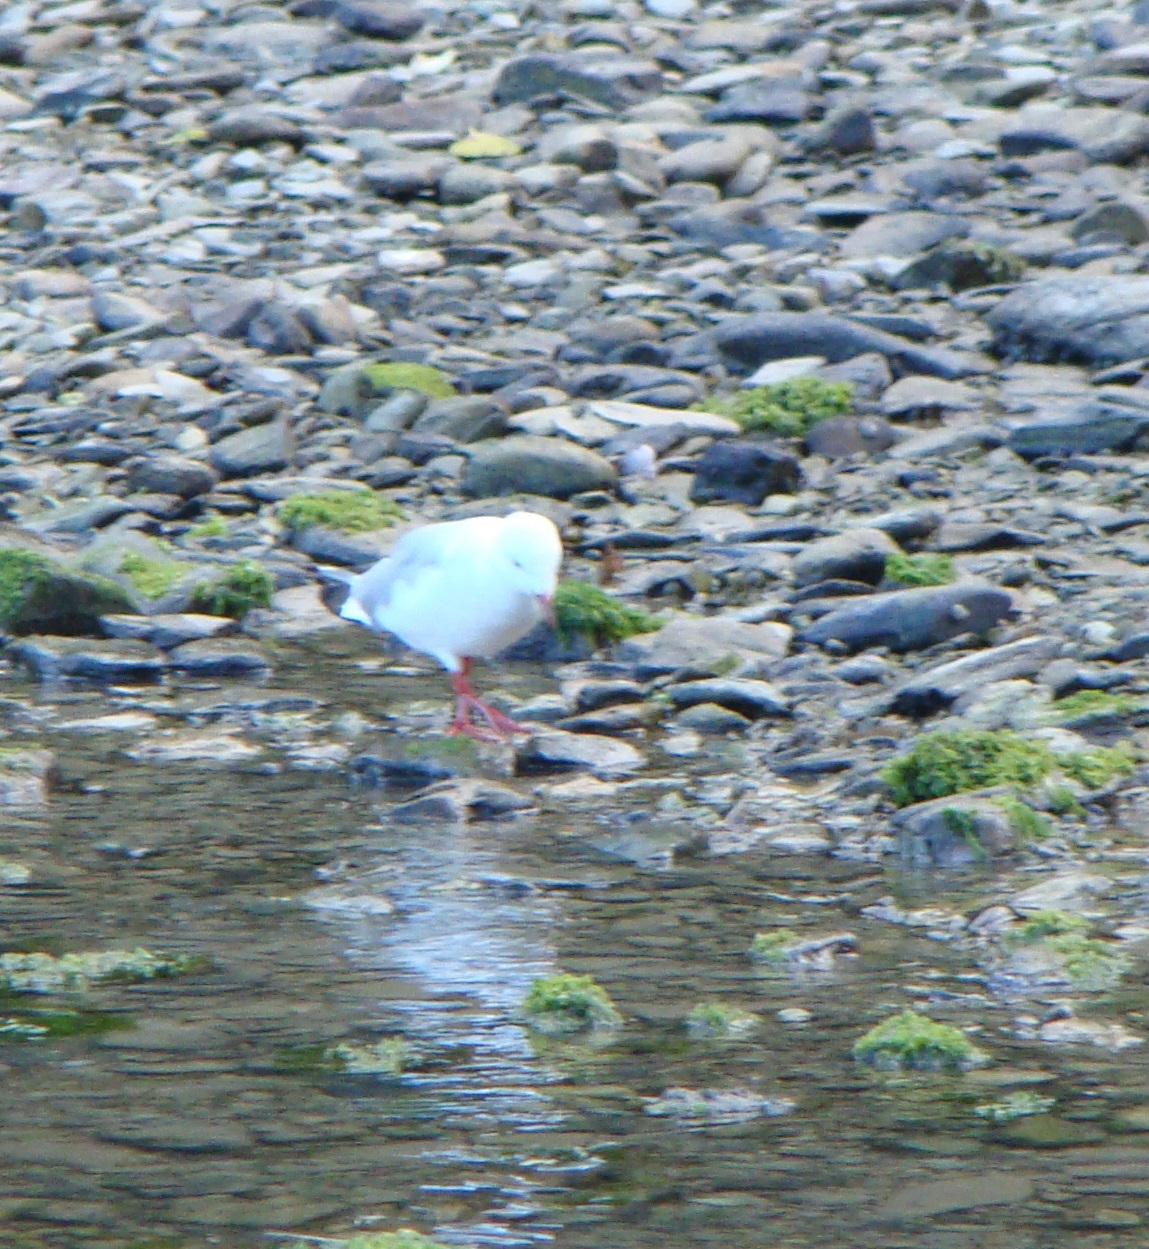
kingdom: Animalia
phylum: Chordata
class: Aves
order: Charadriiformes
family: Laridae
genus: Chroicocephalus
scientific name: Chroicocephalus novaehollandiae
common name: Silver gull
